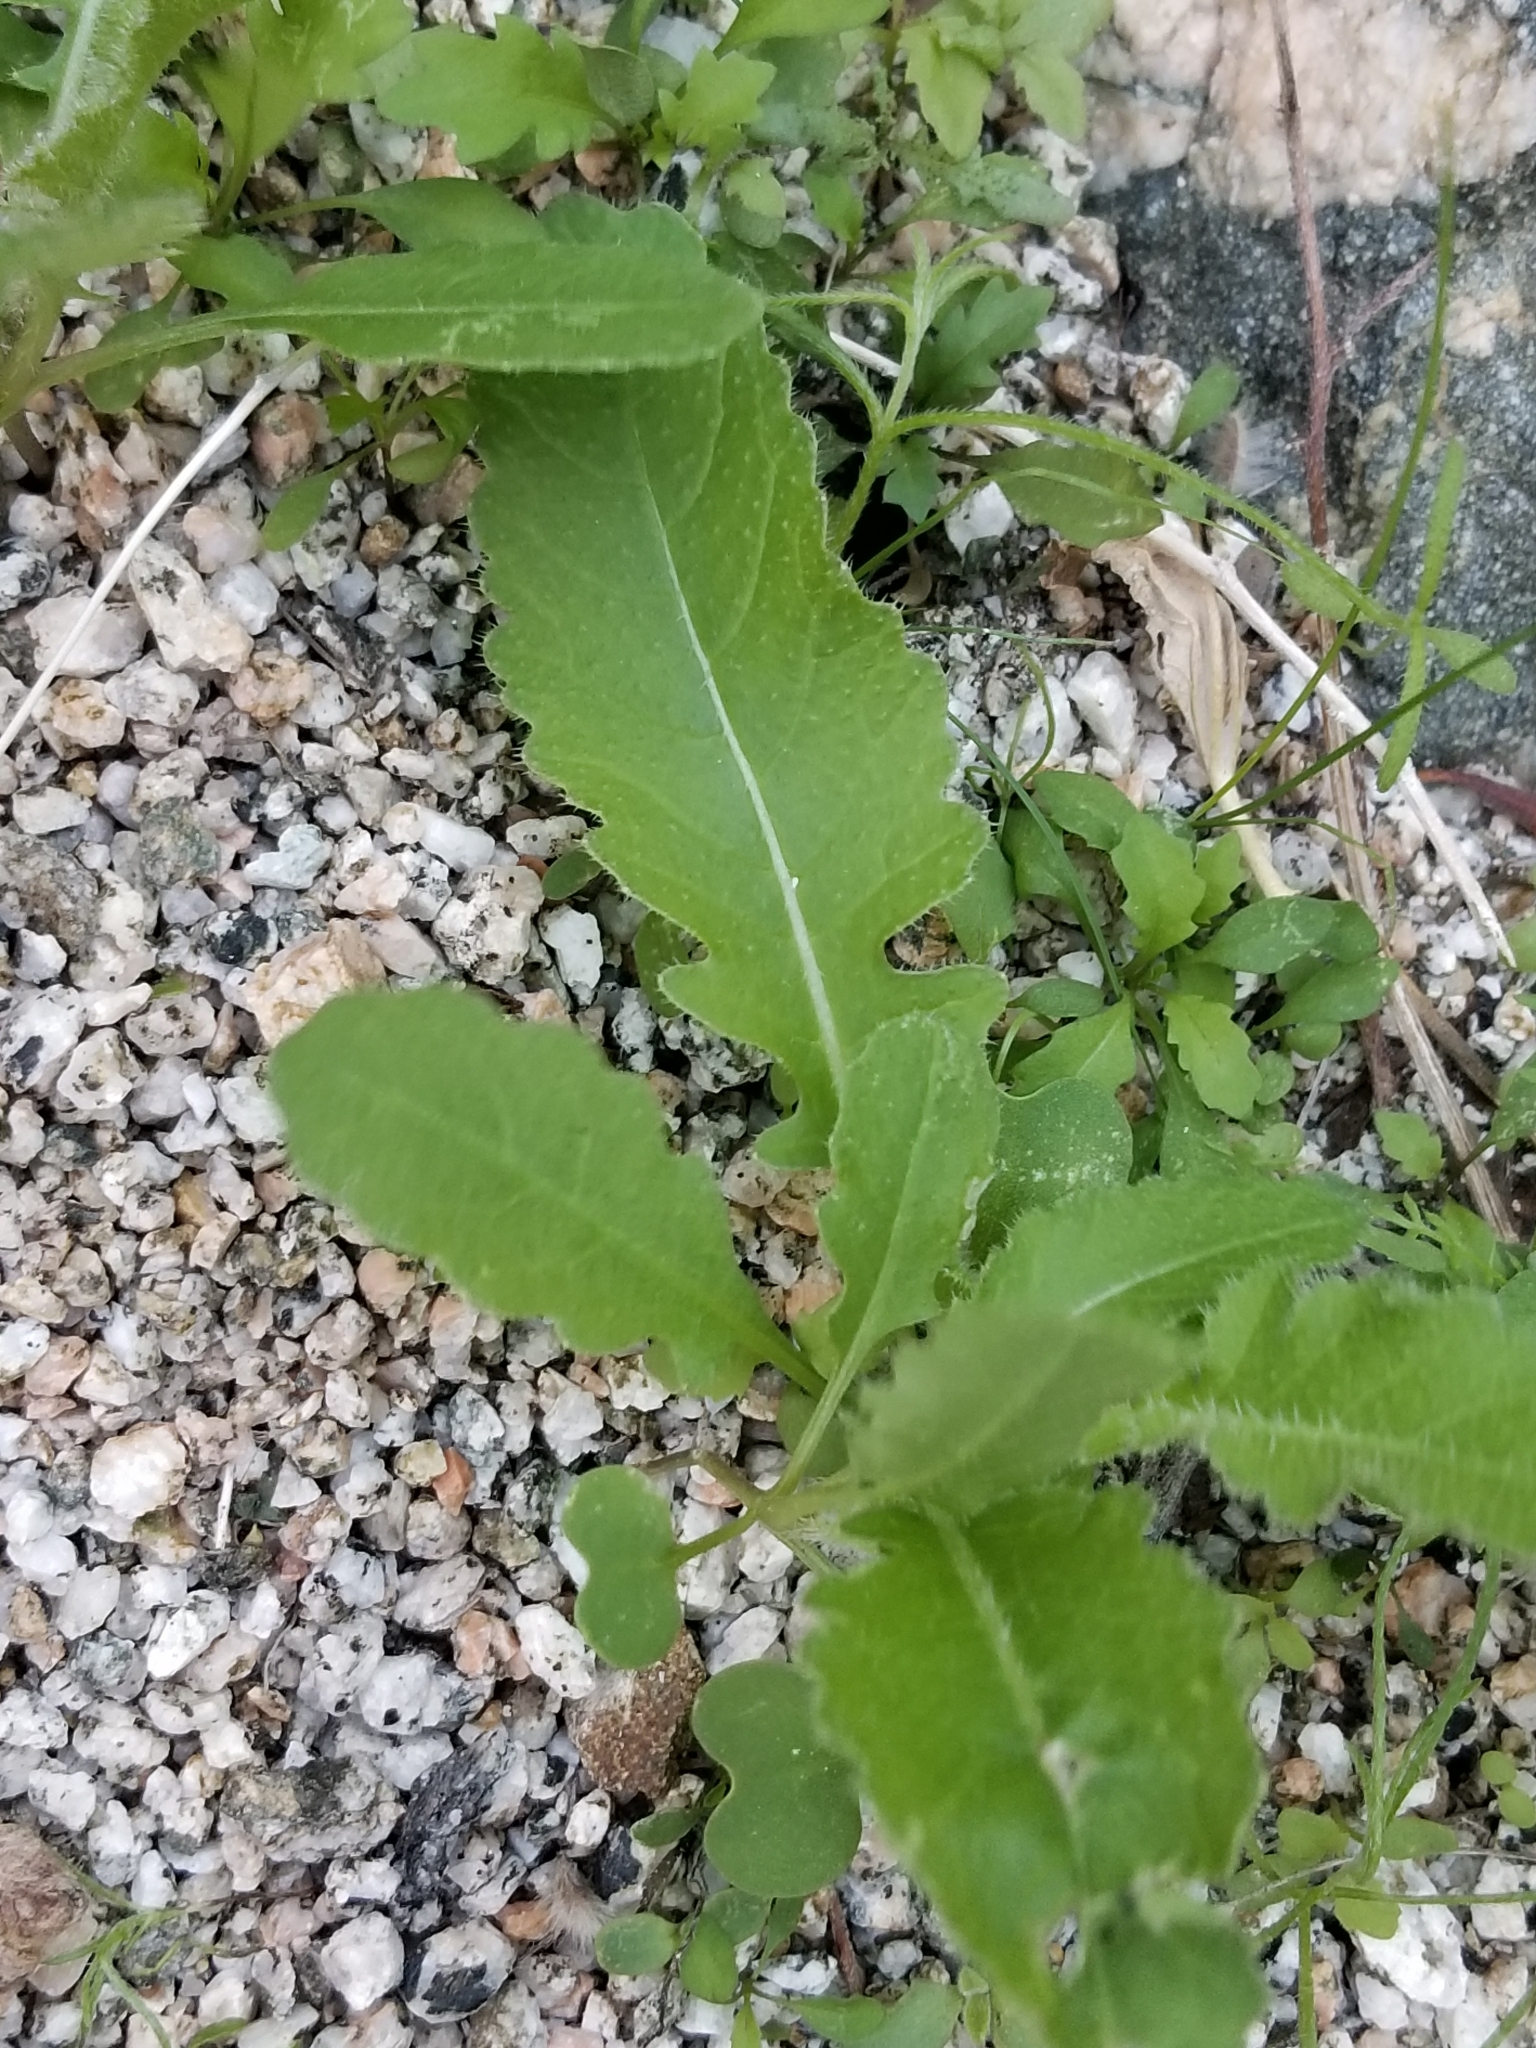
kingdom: Plantae
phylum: Tracheophyta
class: Magnoliopsida
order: Brassicales
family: Brassicaceae
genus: Brassica
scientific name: Brassica tournefortii
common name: Pale cabbage
